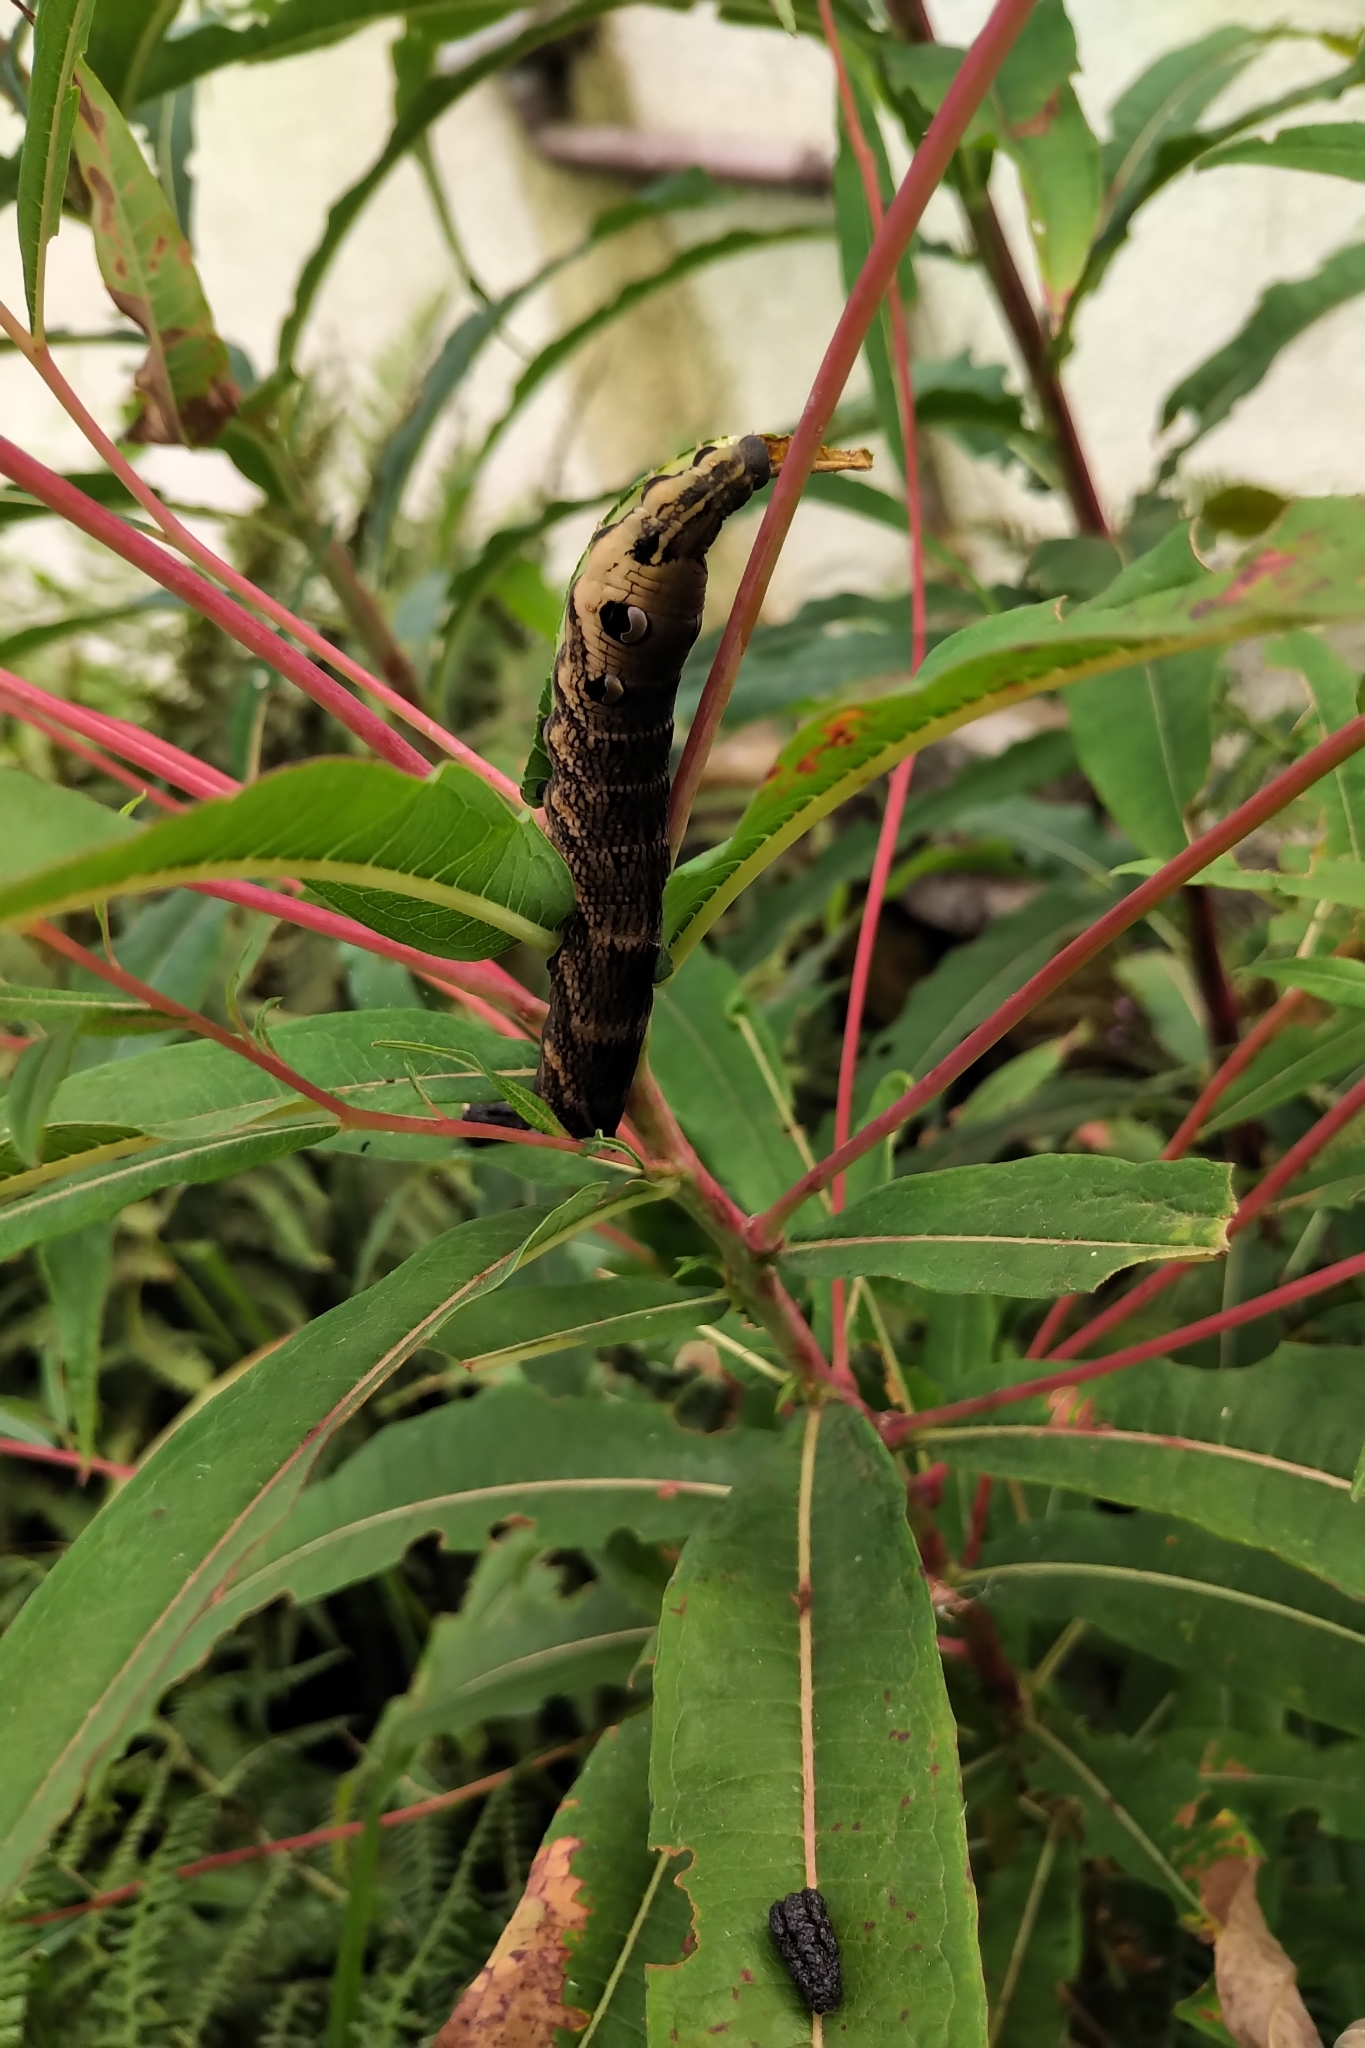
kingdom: Animalia
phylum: Arthropoda
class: Insecta
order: Lepidoptera
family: Sphingidae
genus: Deilephila
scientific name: Deilephila elpenor
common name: Elephant hawk-moth
